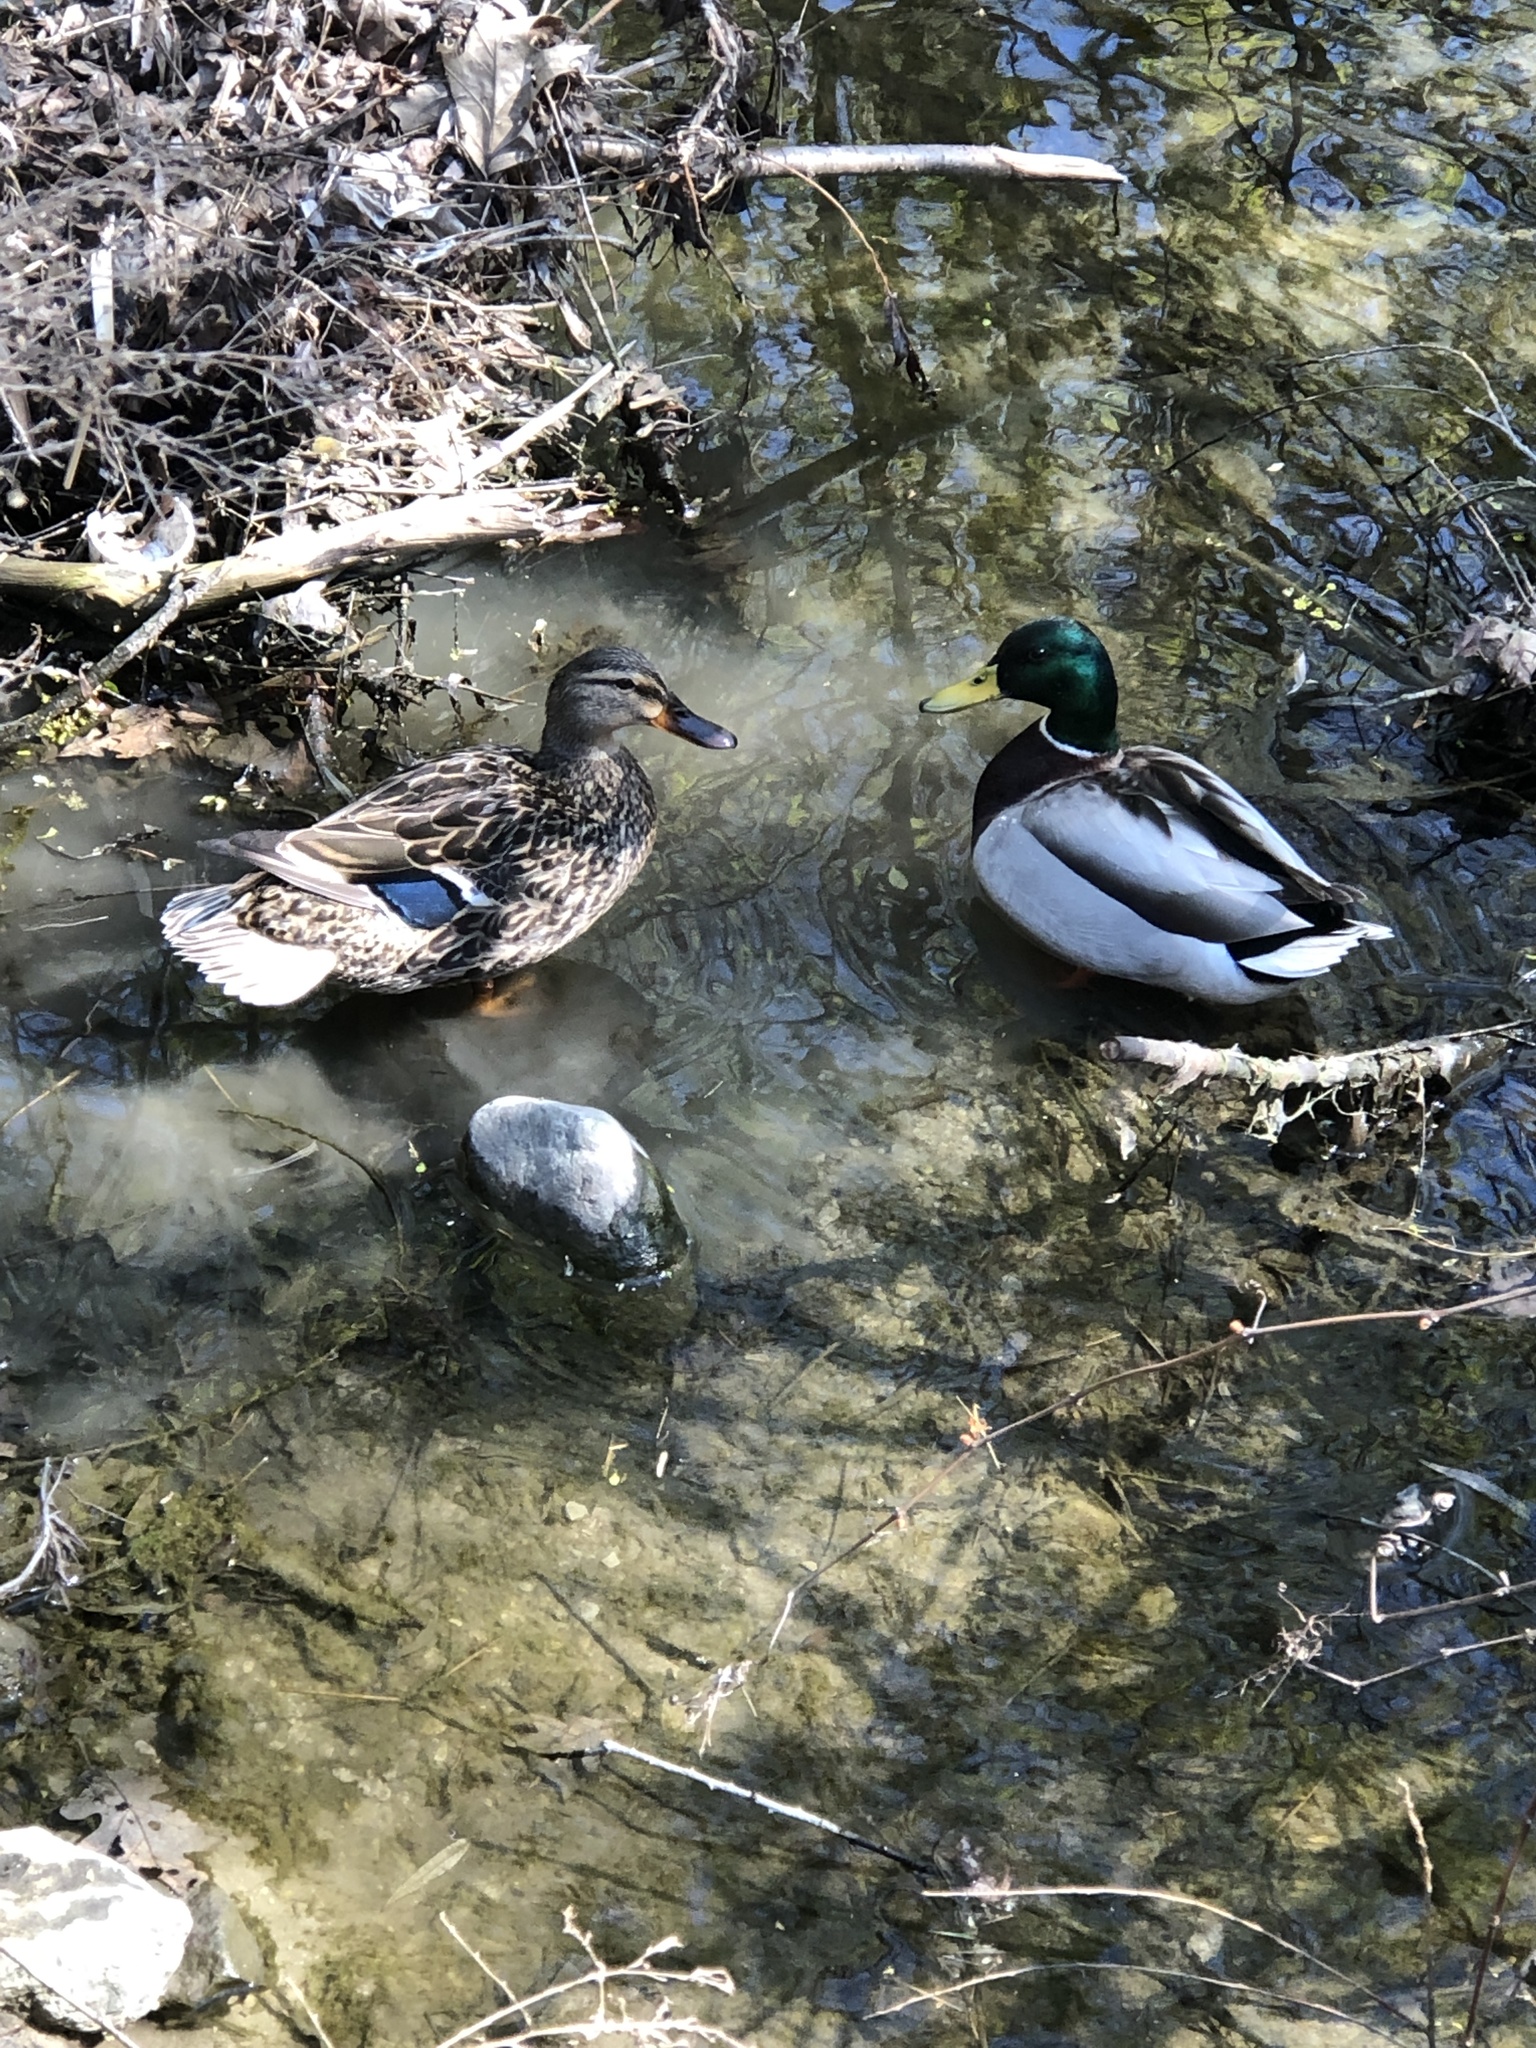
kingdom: Animalia
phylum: Chordata
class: Aves
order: Anseriformes
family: Anatidae
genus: Anas
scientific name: Anas platyrhynchos
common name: Mallard
